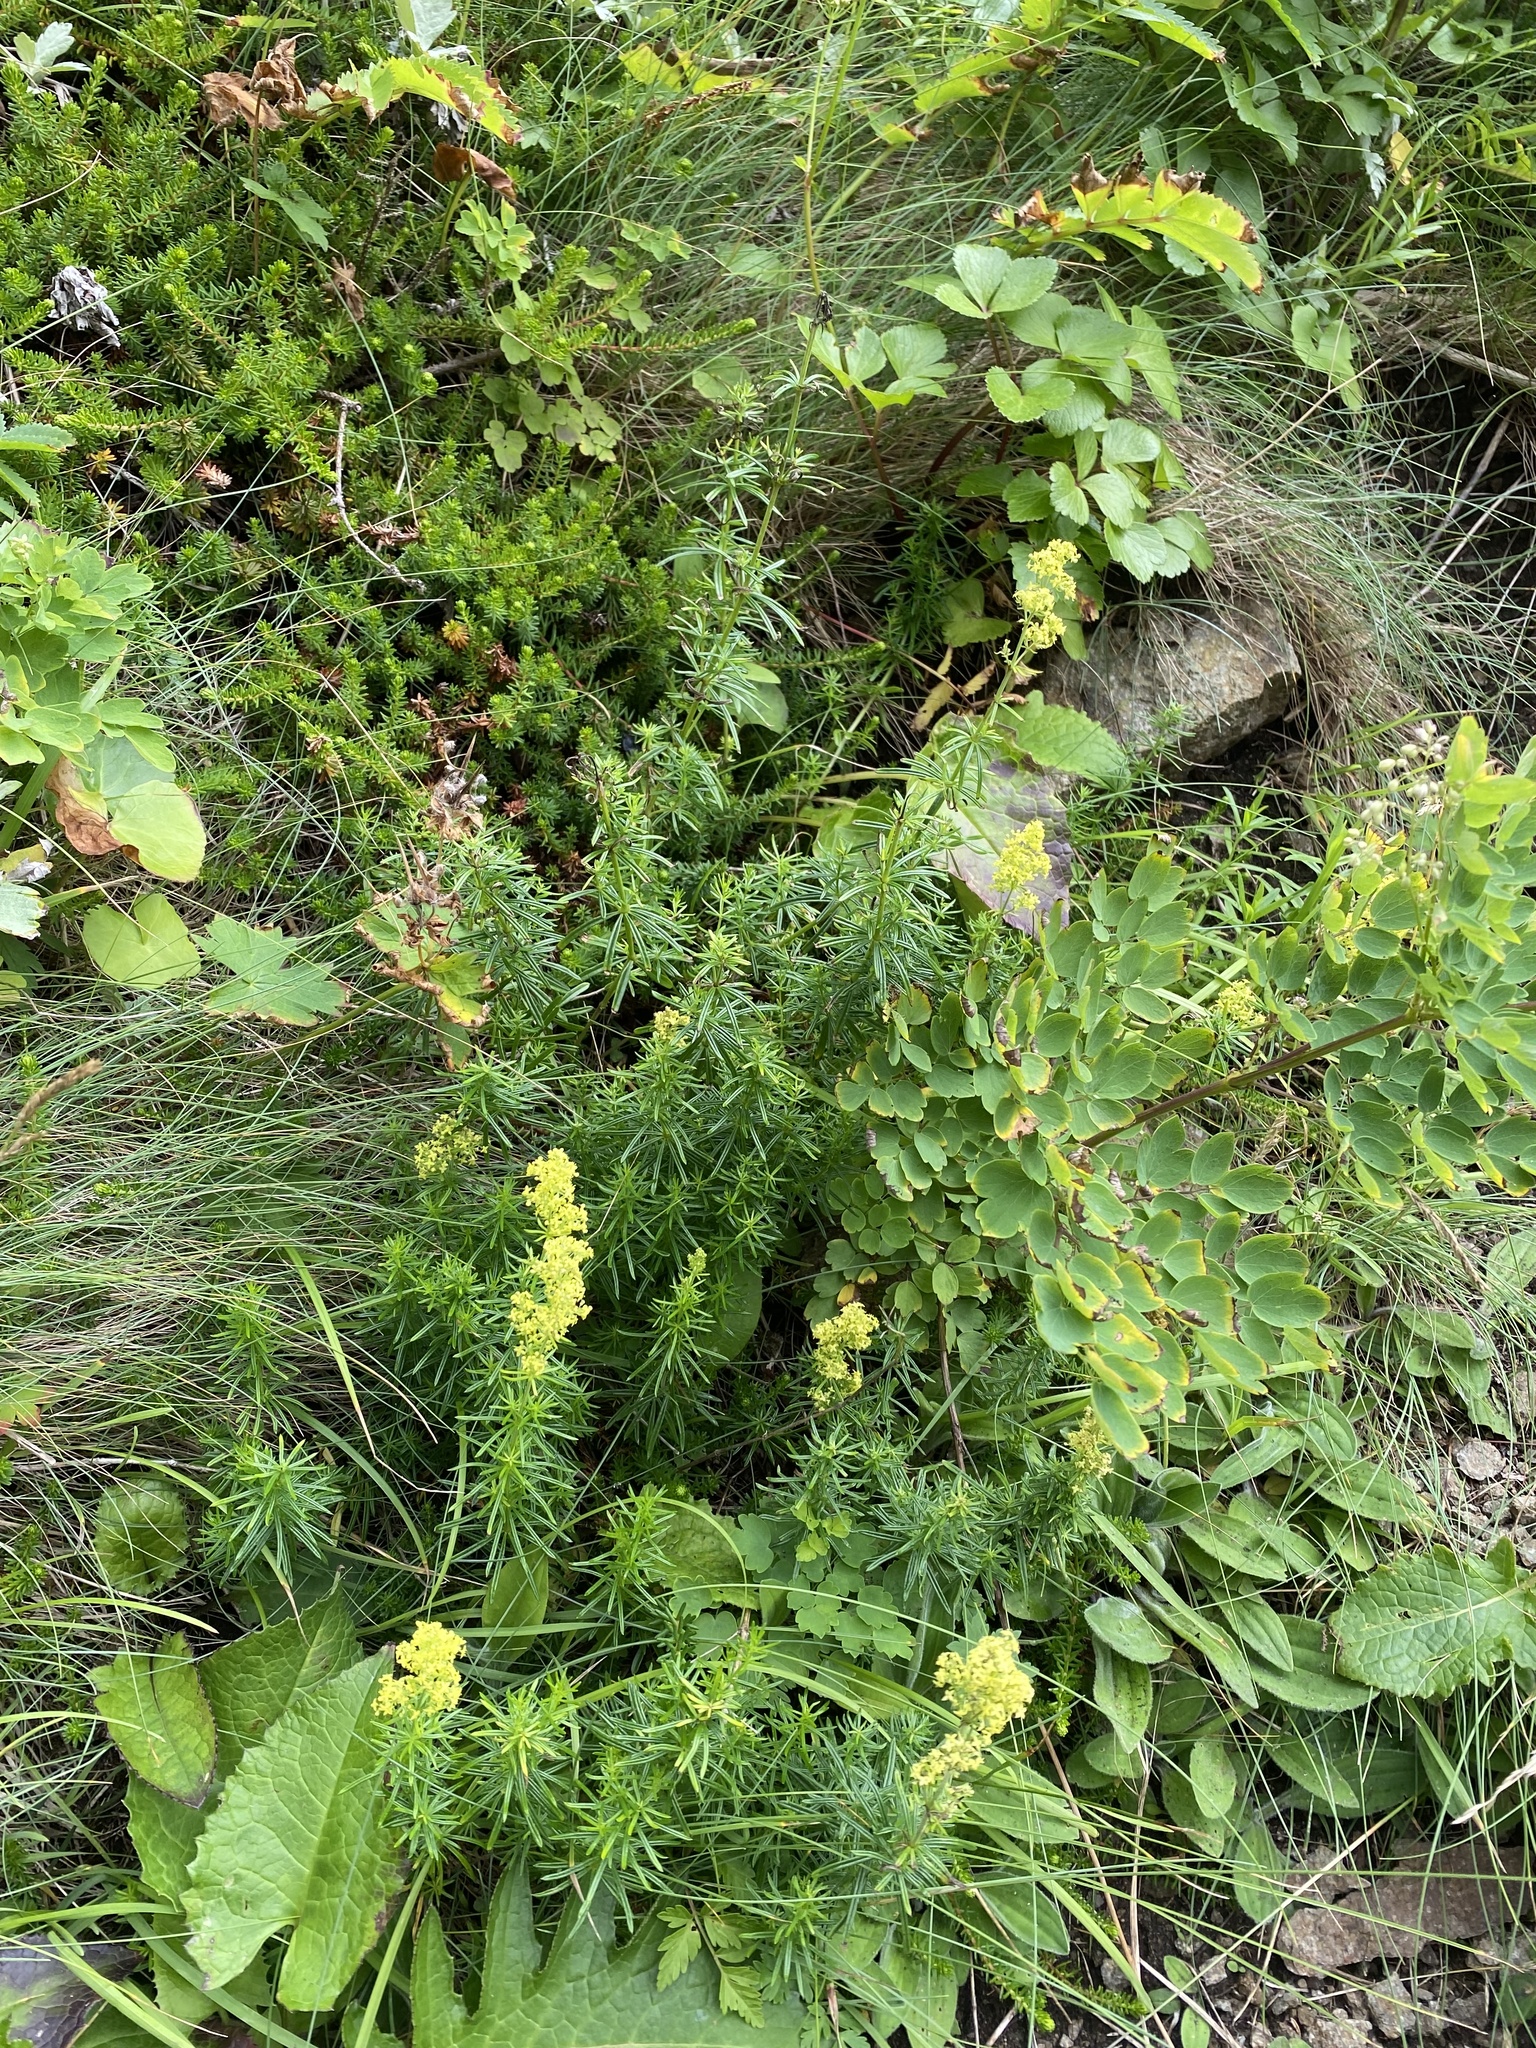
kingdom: Plantae
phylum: Tracheophyta
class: Magnoliopsida
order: Gentianales
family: Rubiaceae
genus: Galium
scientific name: Galium verum
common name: Lady's bedstraw
